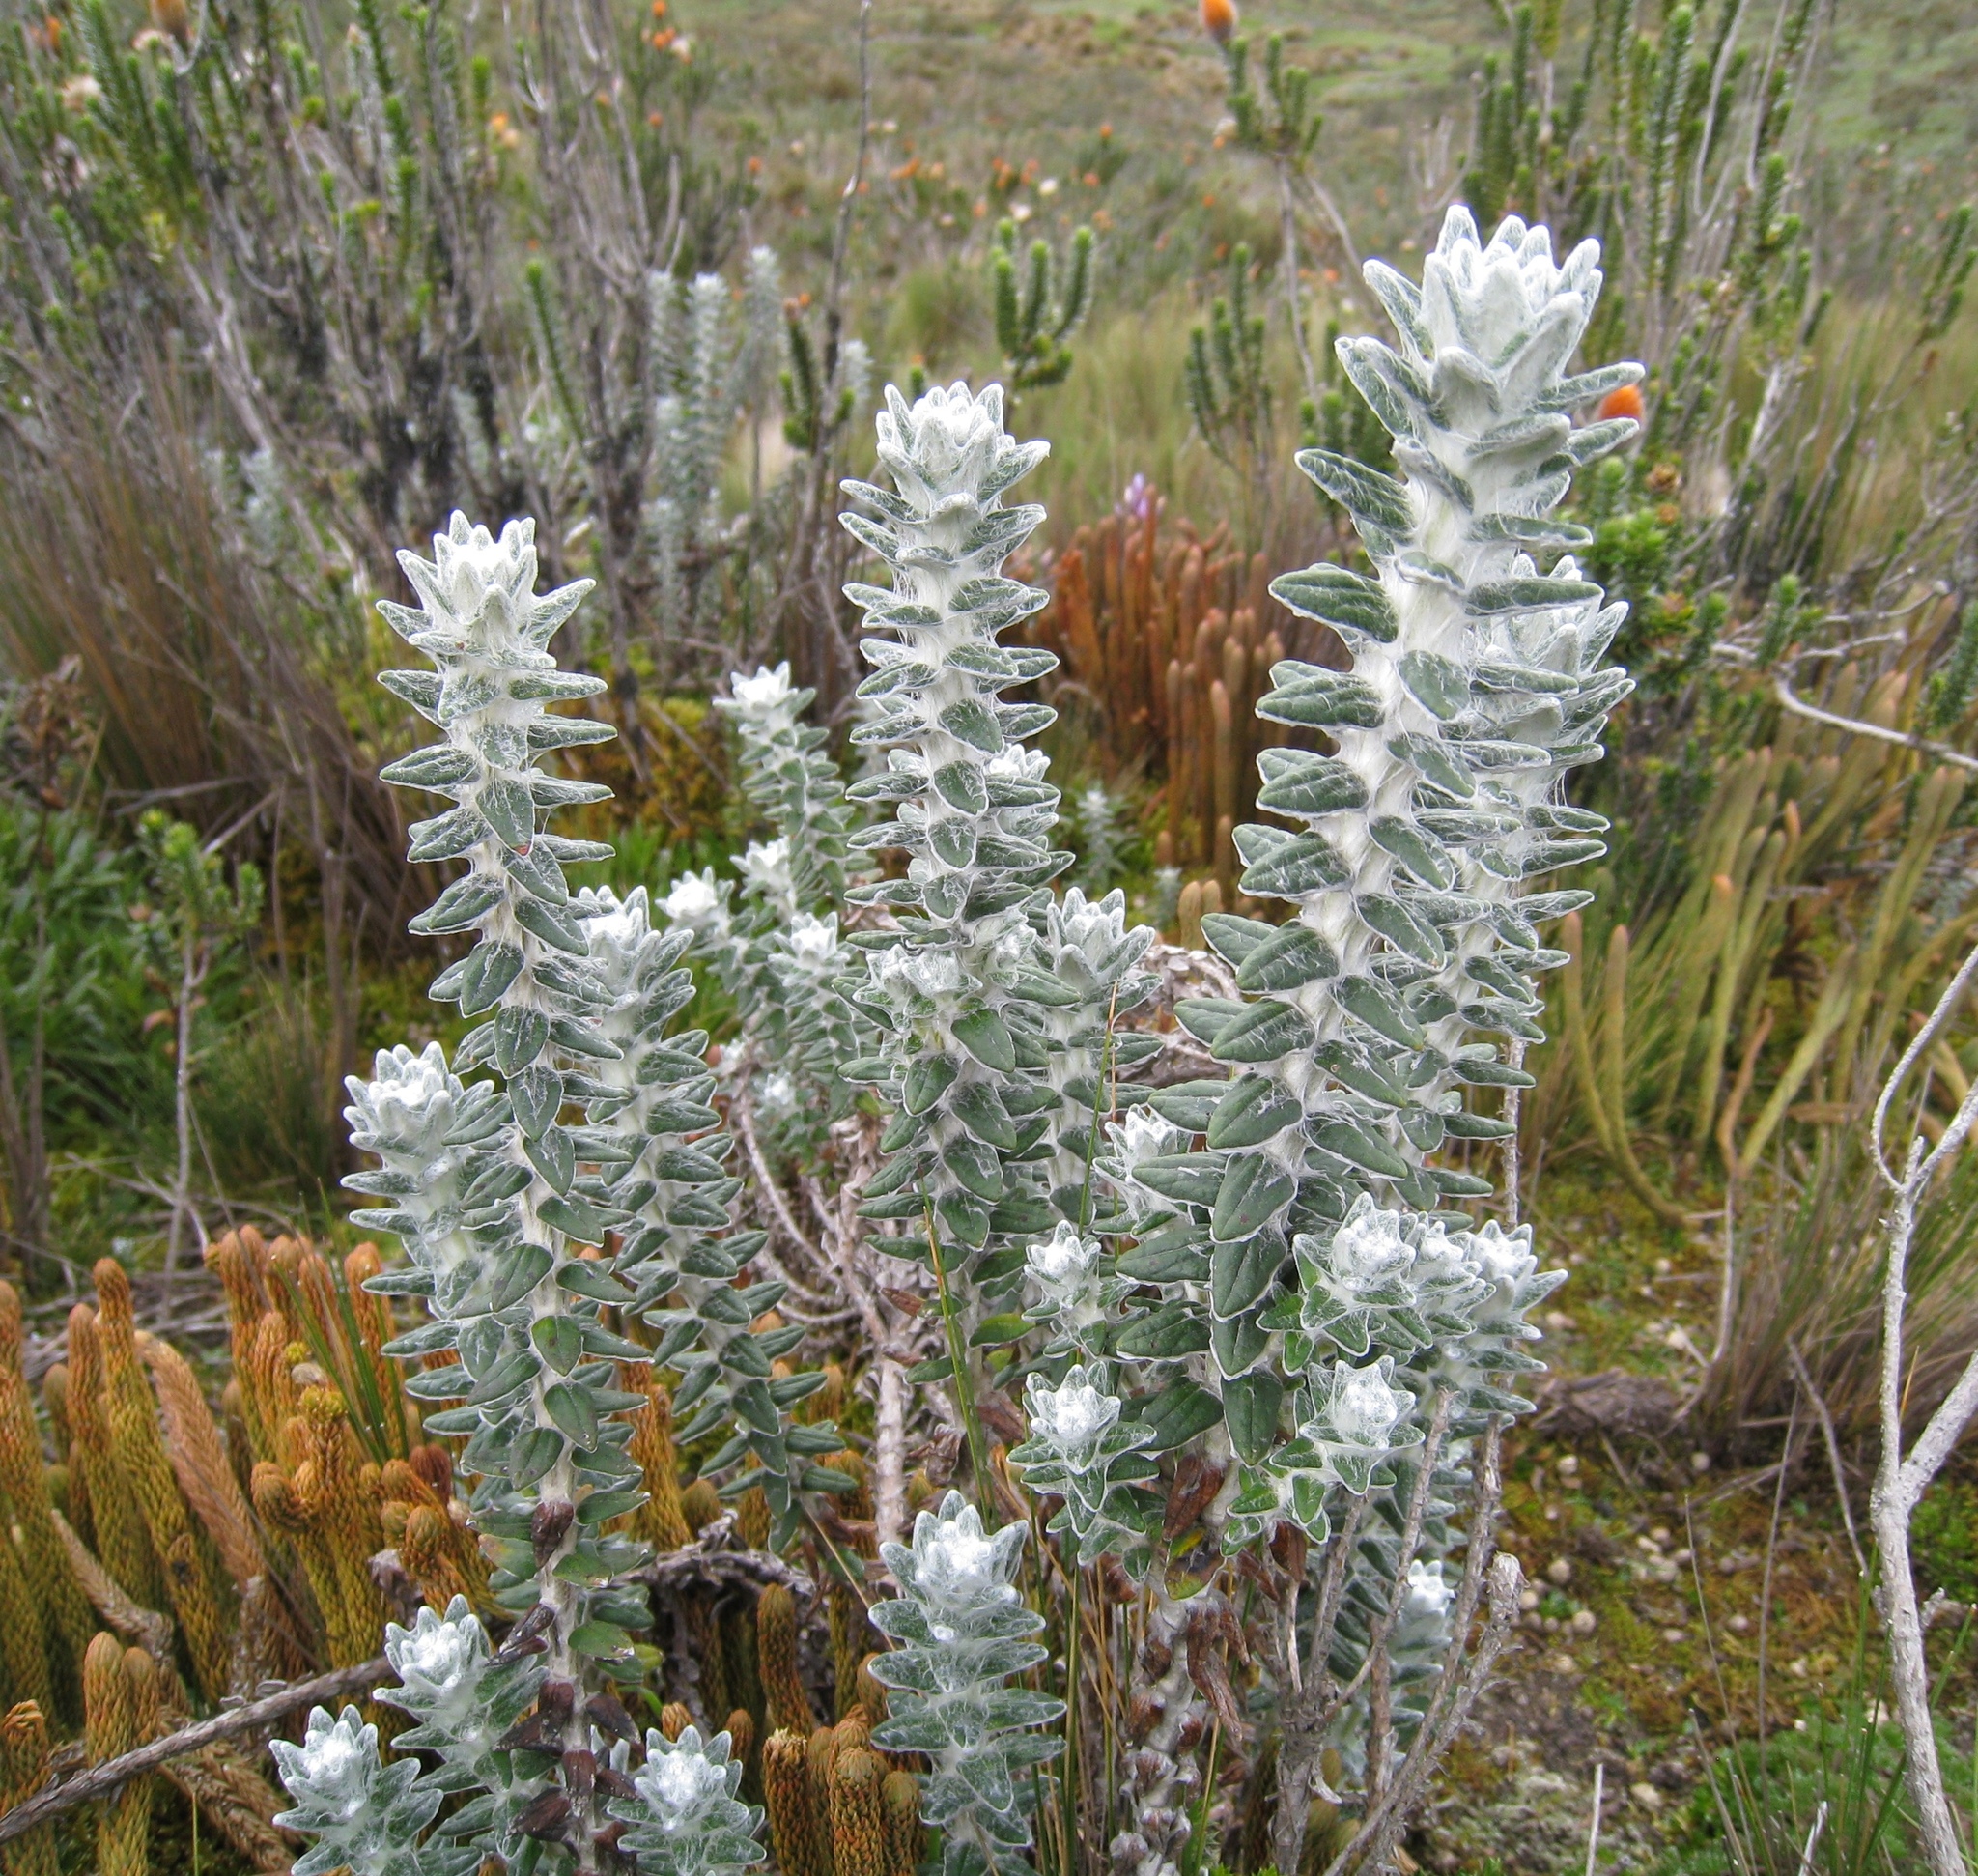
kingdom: Plantae
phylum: Tracheophyta
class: Magnoliopsida
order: Asterales
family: Asteraceae
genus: Lasiocephalus
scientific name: Lasiocephalus ovatus
